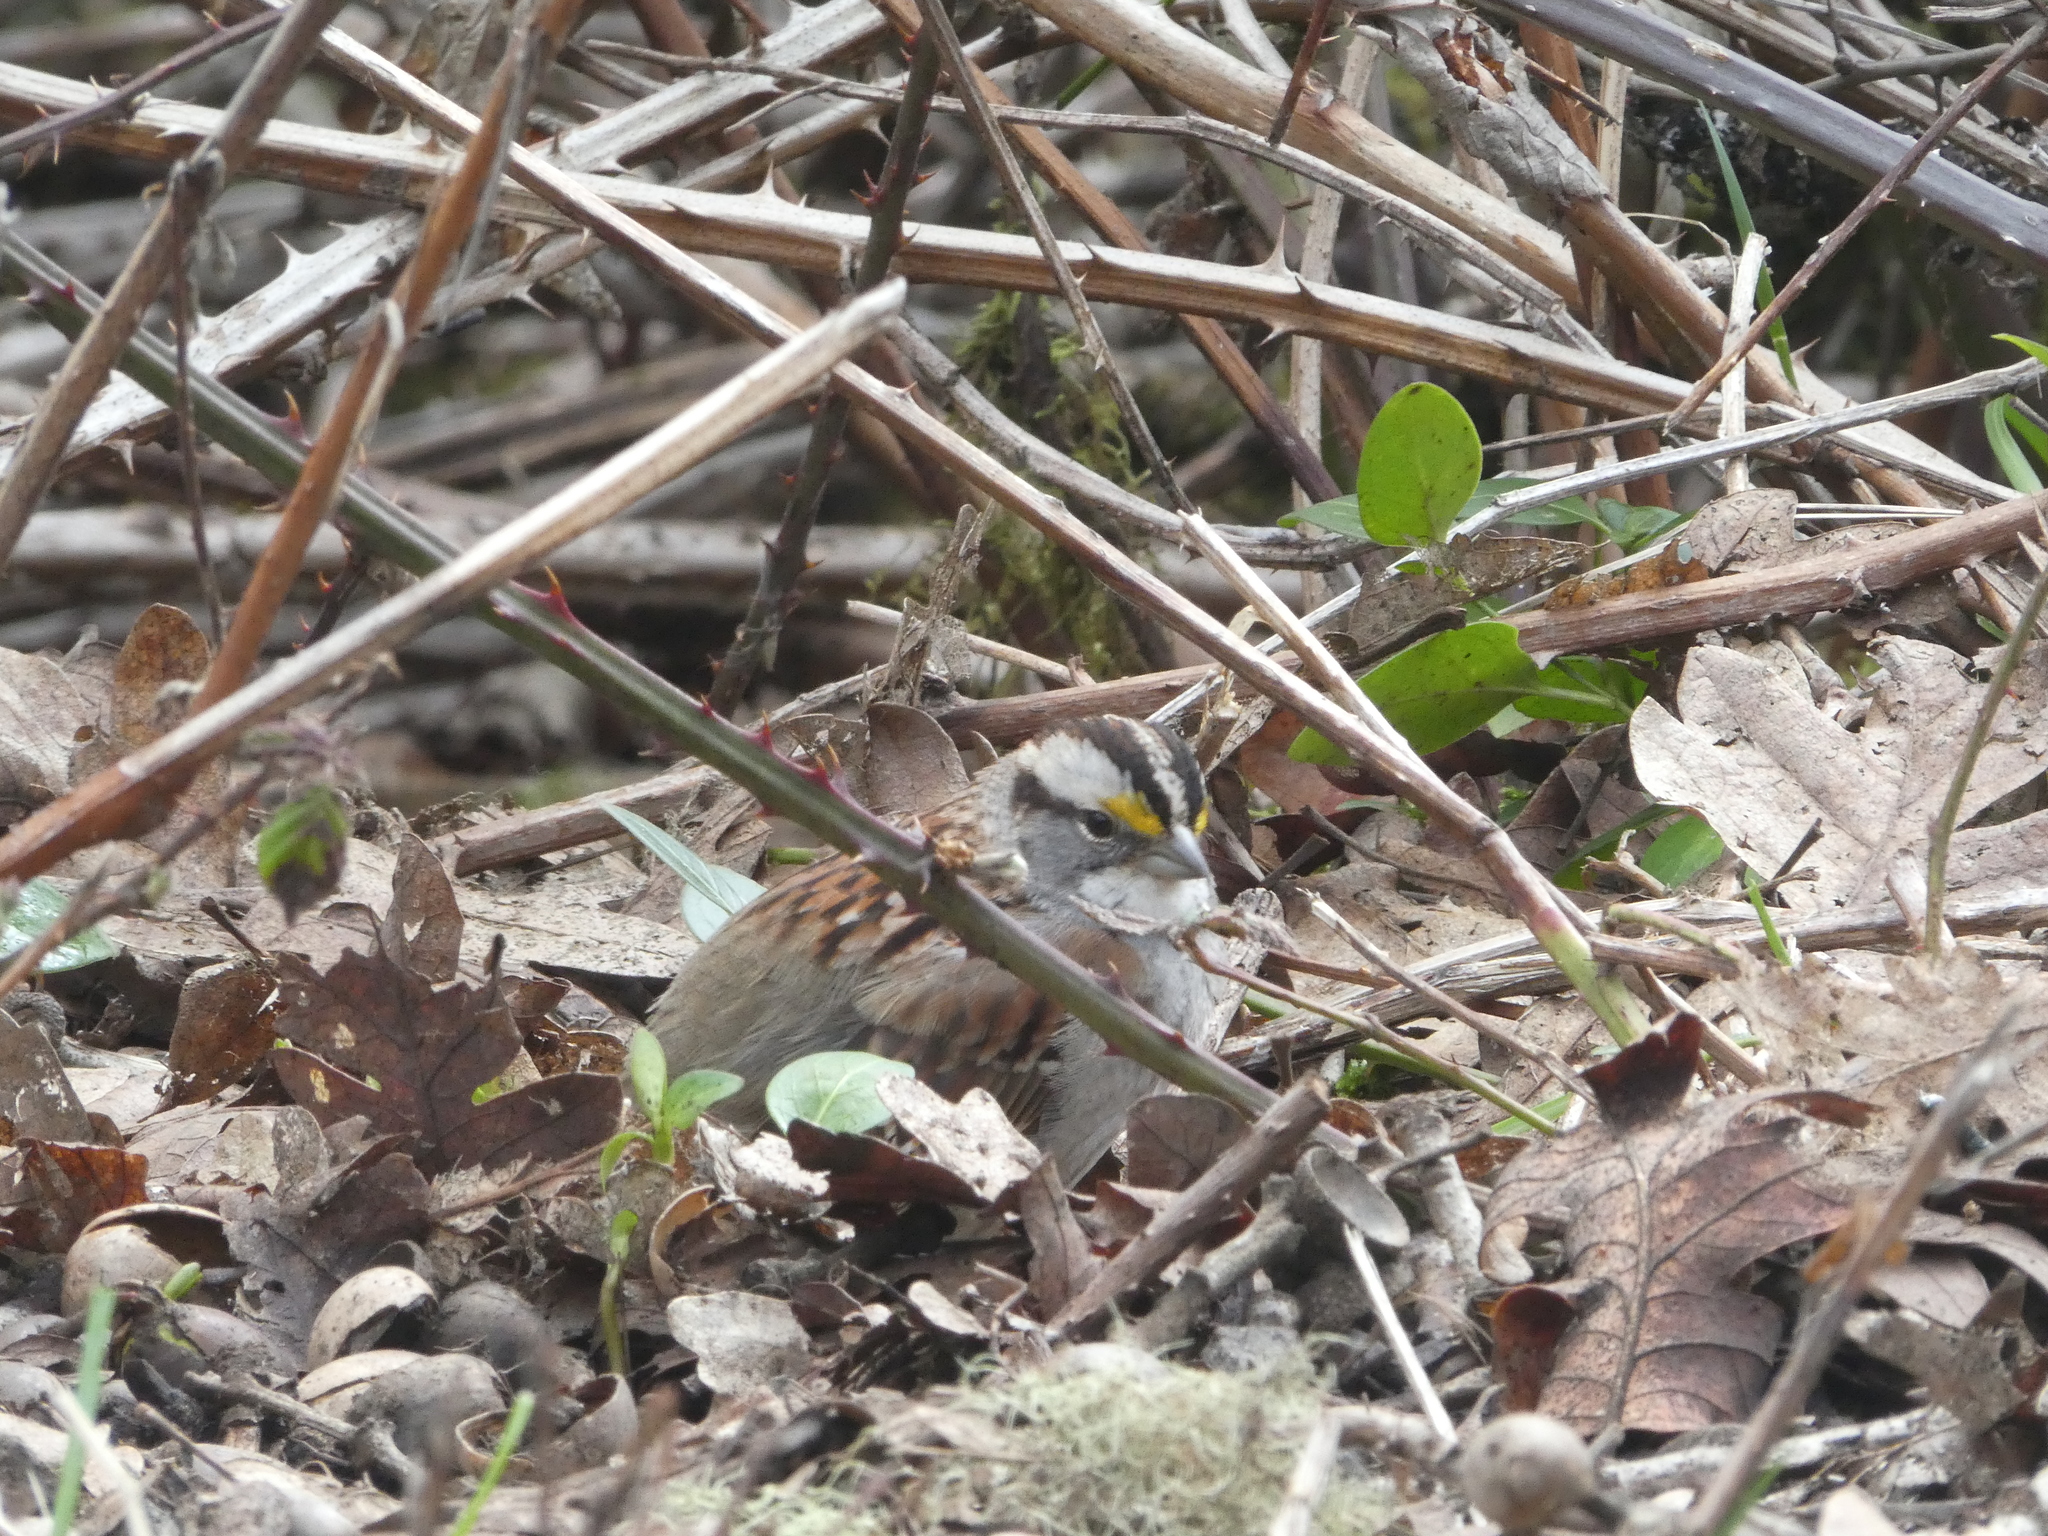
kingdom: Animalia
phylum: Chordata
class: Aves
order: Passeriformes
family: Passerellidae
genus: Zonotrichia
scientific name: Zonotrichia albicollis
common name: White-throated sparrow
